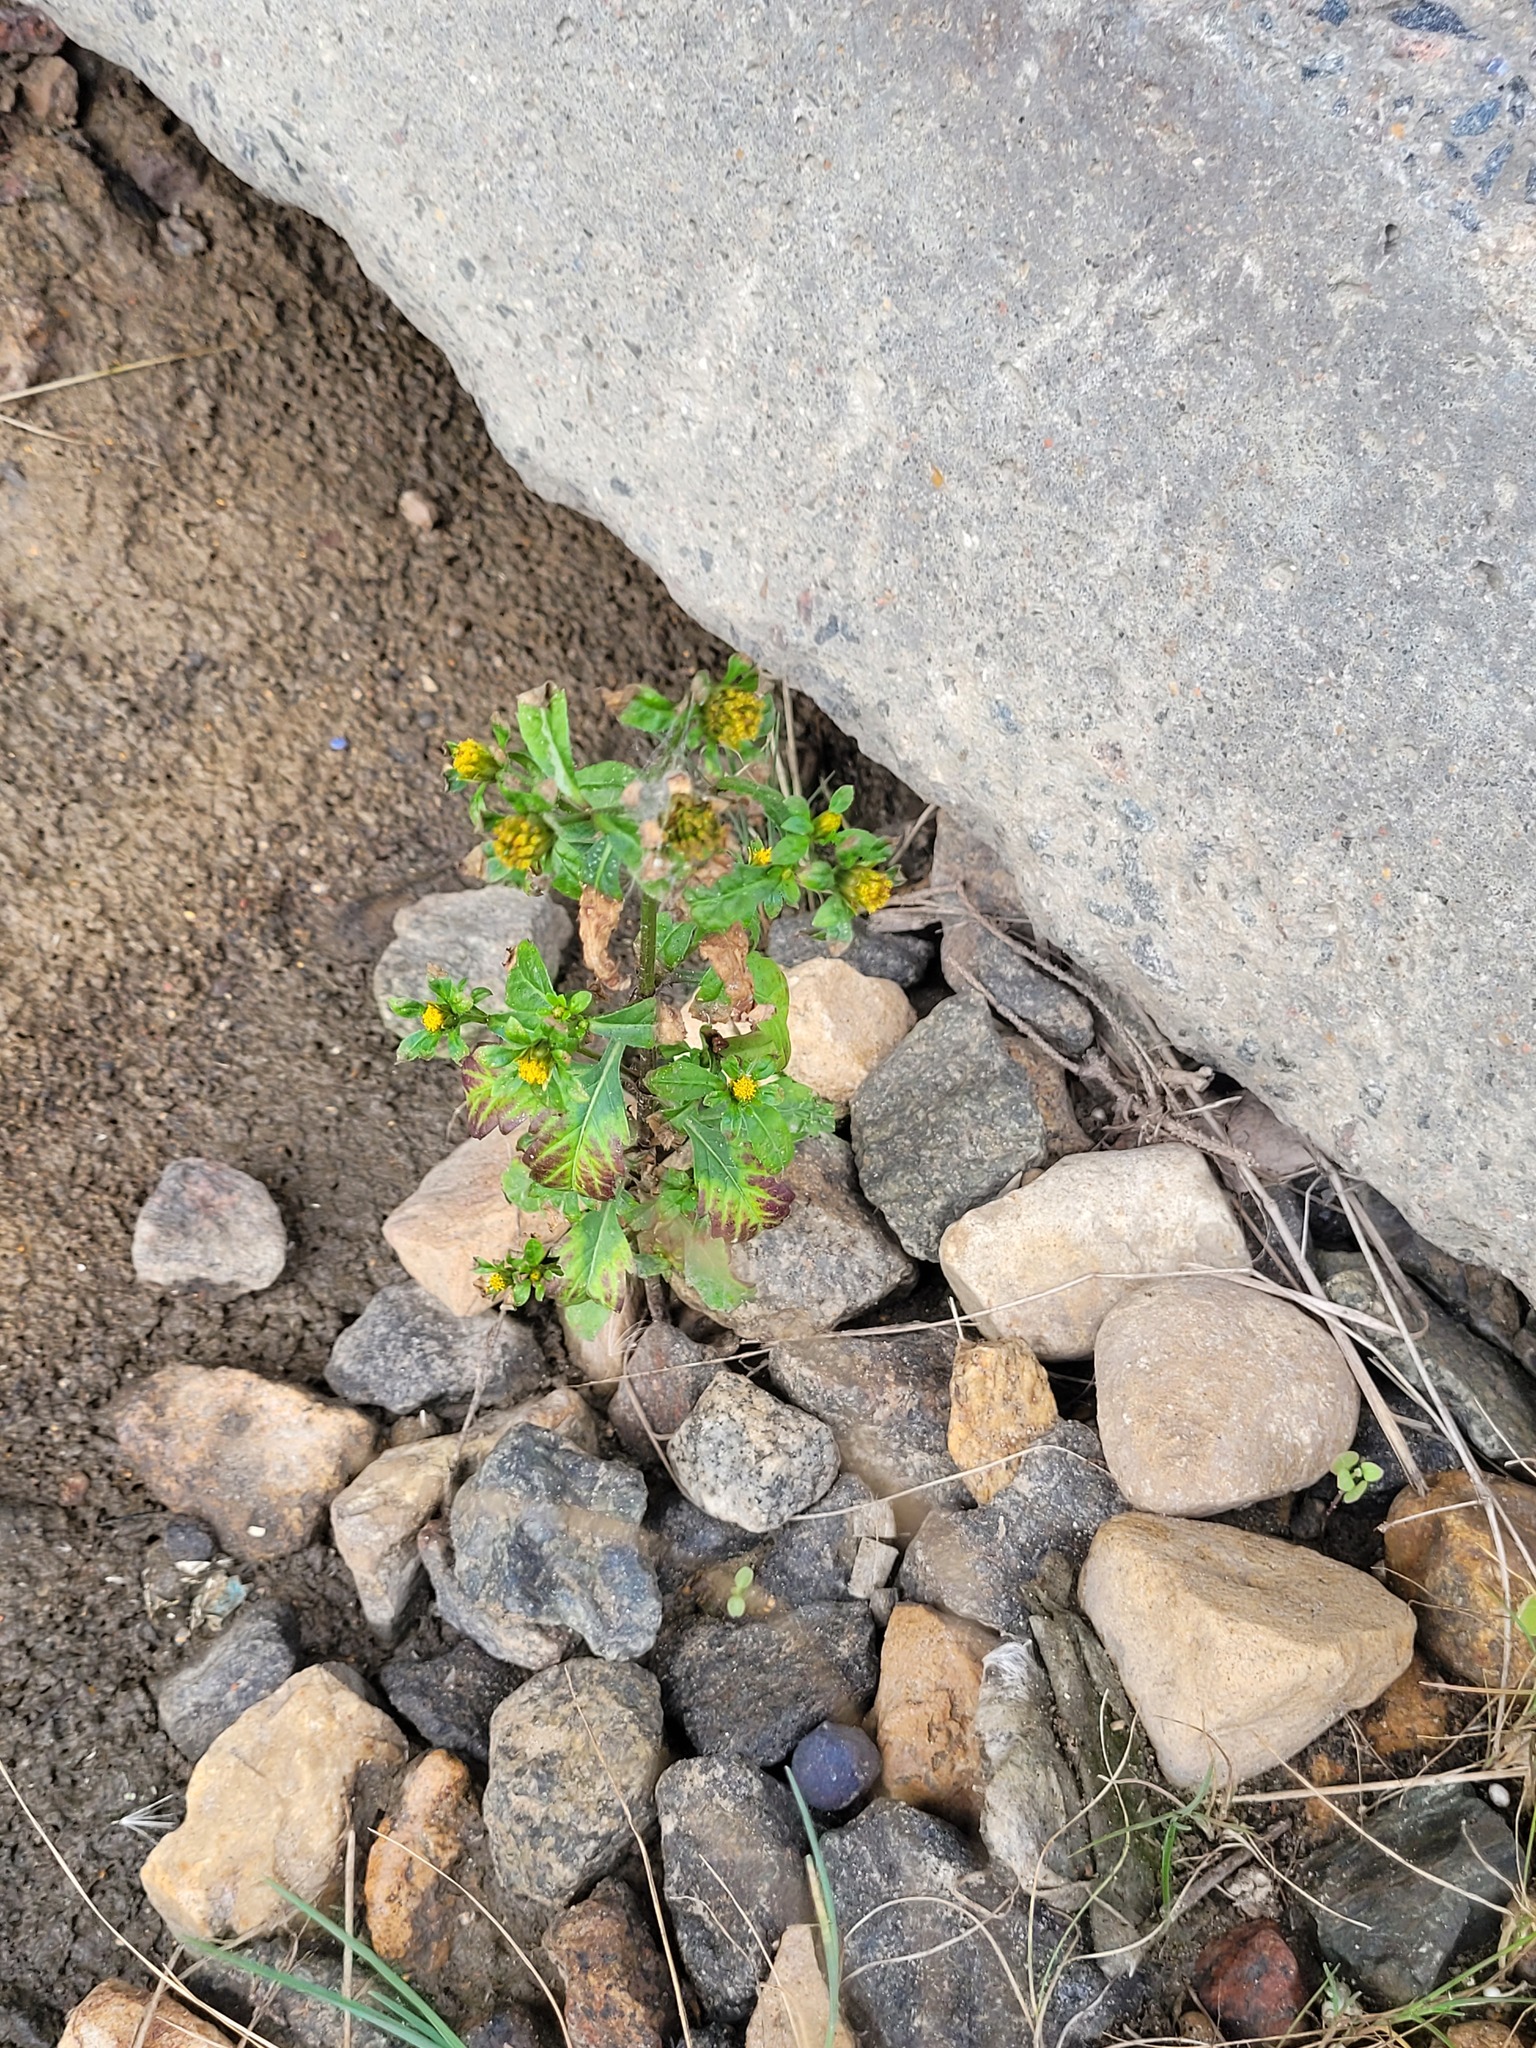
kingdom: Plantae
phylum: Tracheophyta
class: Magnoliopsida
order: Asterales
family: Asteraceae
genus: Bidens
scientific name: Bidens tripartita
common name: Trifid bur-marigold
